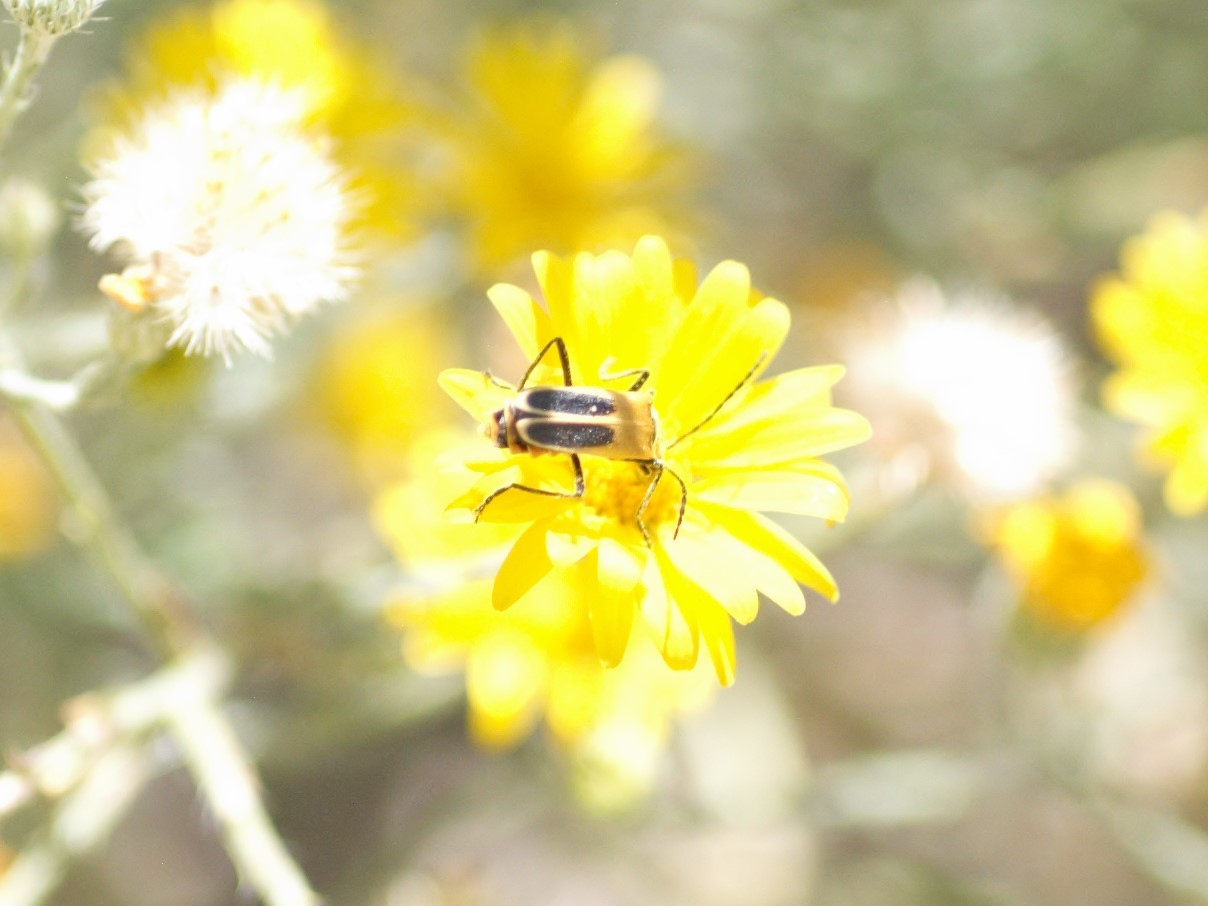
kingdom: Animalia
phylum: Arthropoda
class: Insecta
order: Coleoptera
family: Cantharidae
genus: Chauliognathus
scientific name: Chauliognathus lewisi
